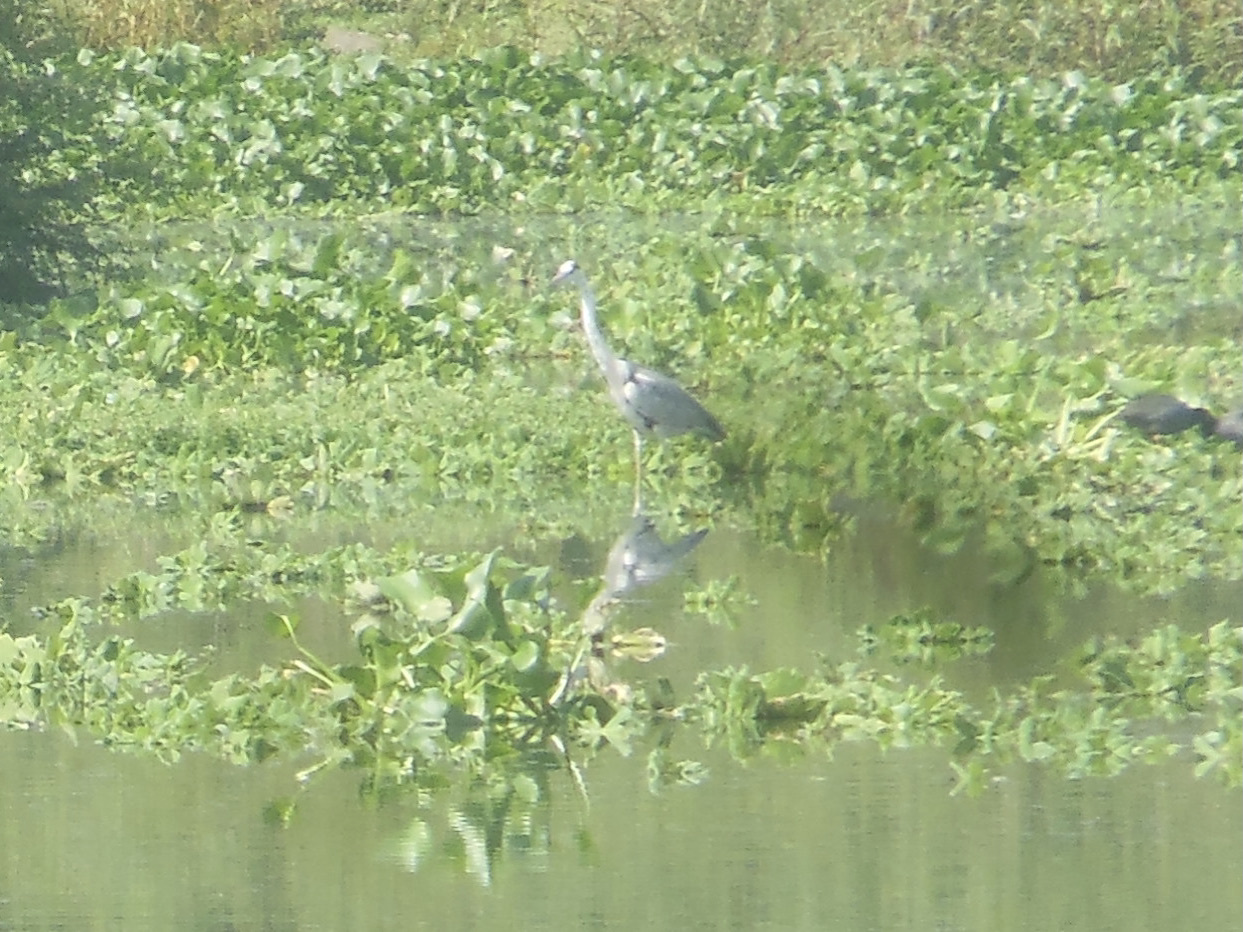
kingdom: Animalia
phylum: Chordata
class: Aves
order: Pelecaniformes
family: Ardeidae
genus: Ardea
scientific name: Ardea cinerea
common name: Grey heron
